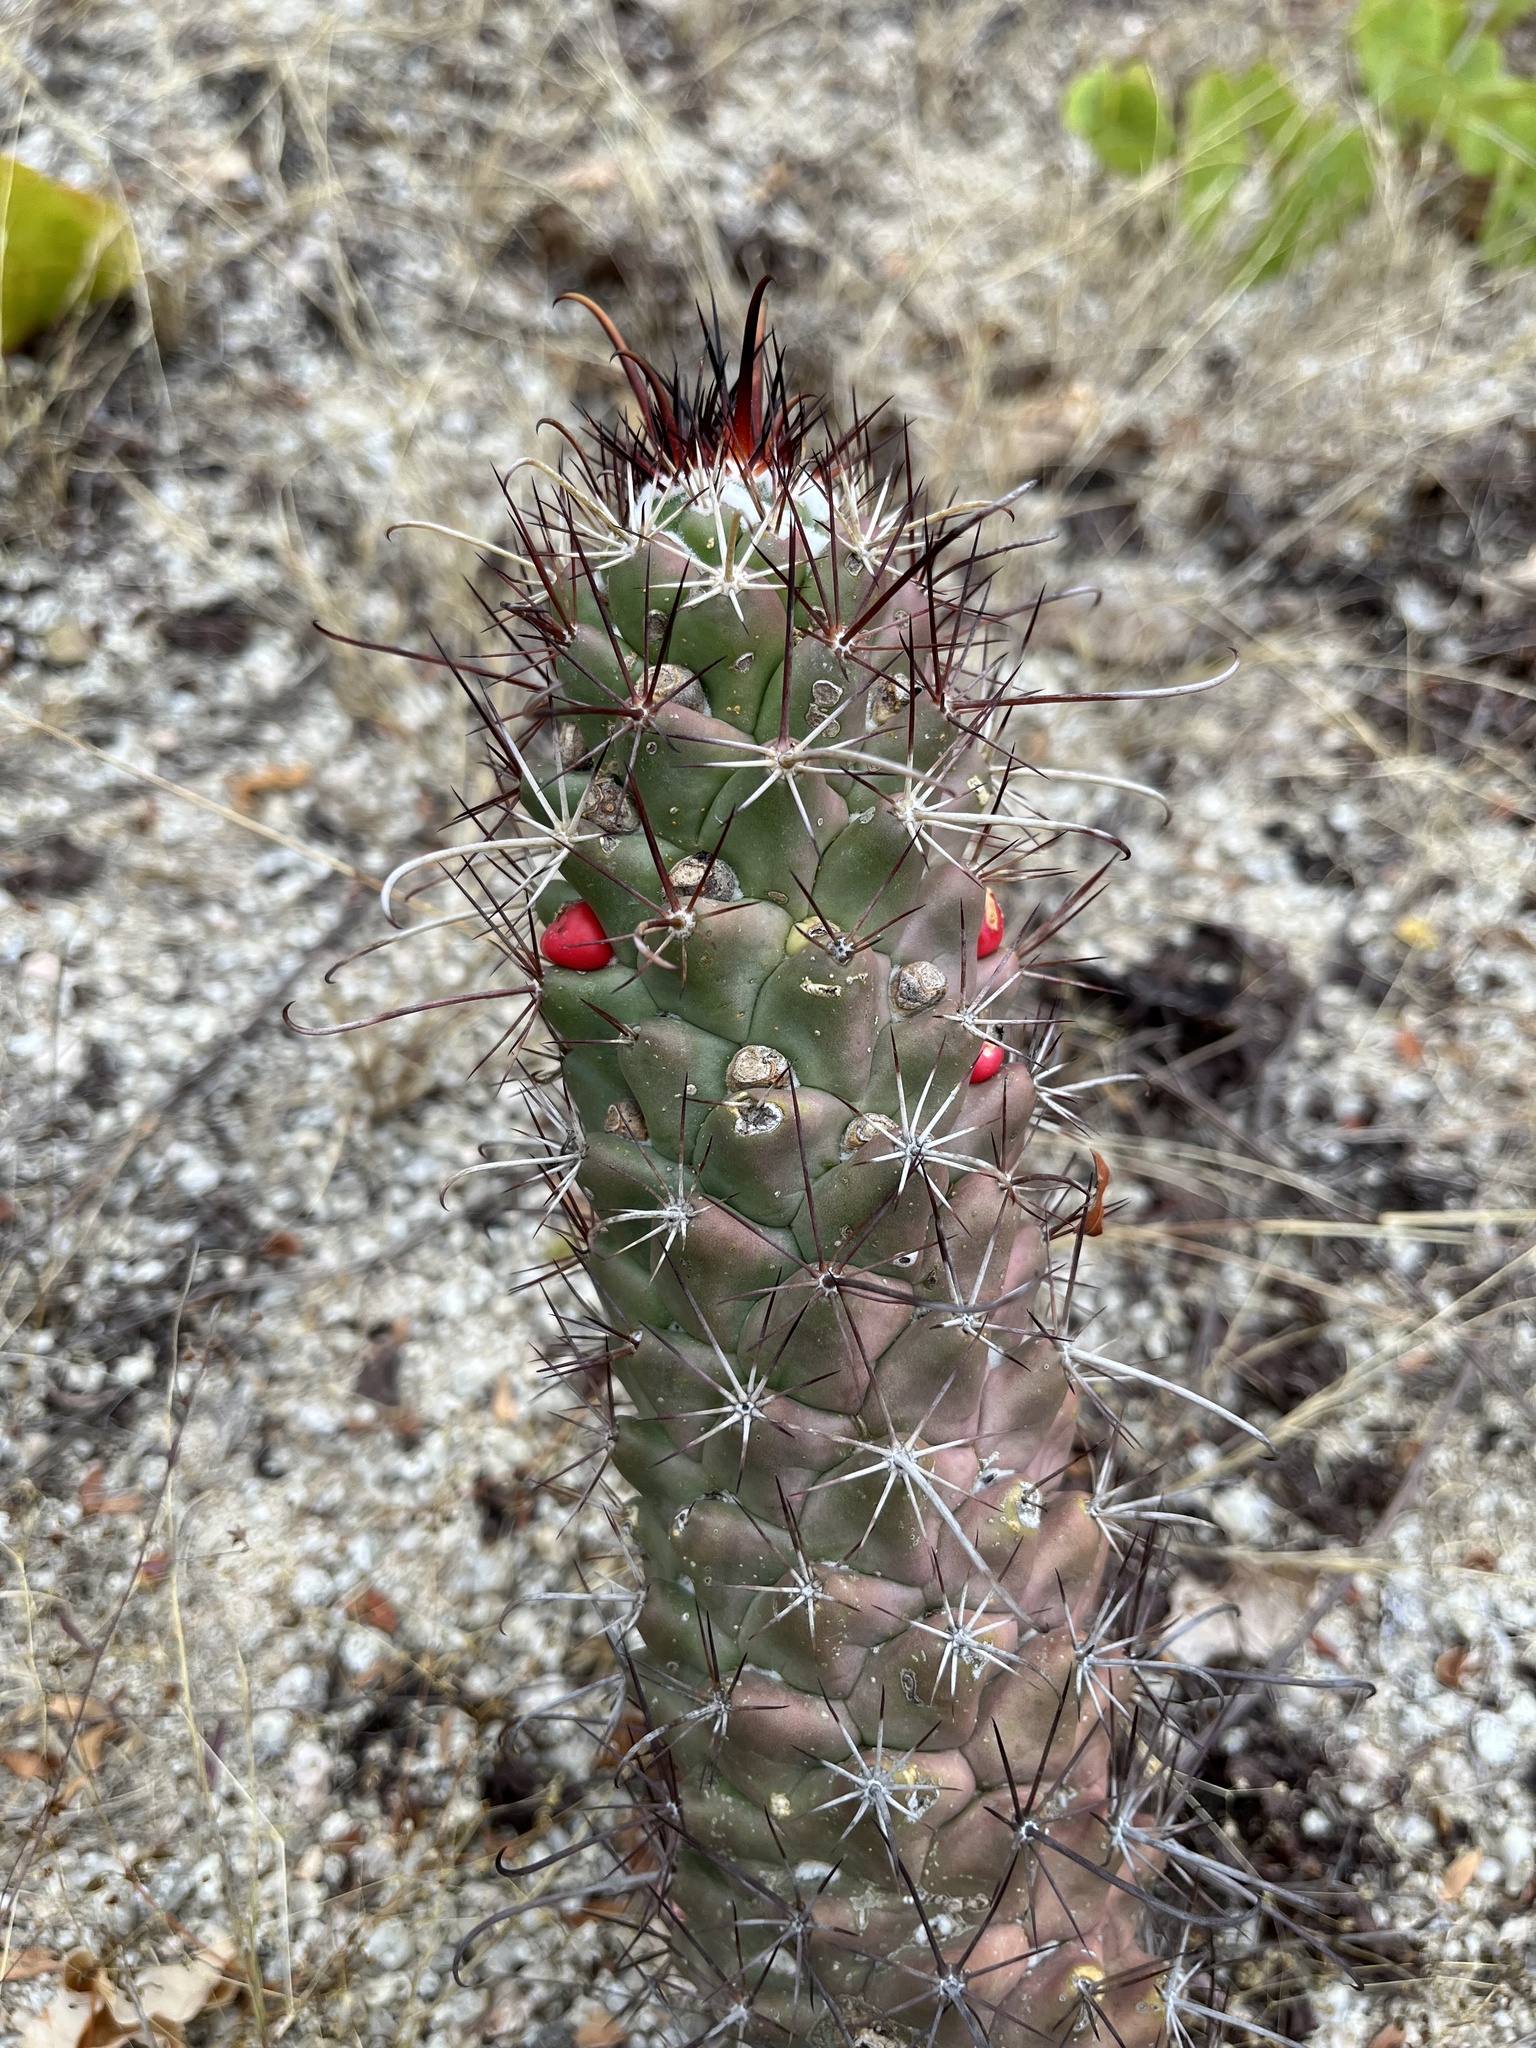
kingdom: Plantae
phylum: Tracheophyta
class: Magnoliopsida
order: Caryophyllales
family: Cactaceae
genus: Cochemiea
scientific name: Cochemiea poselgeri
